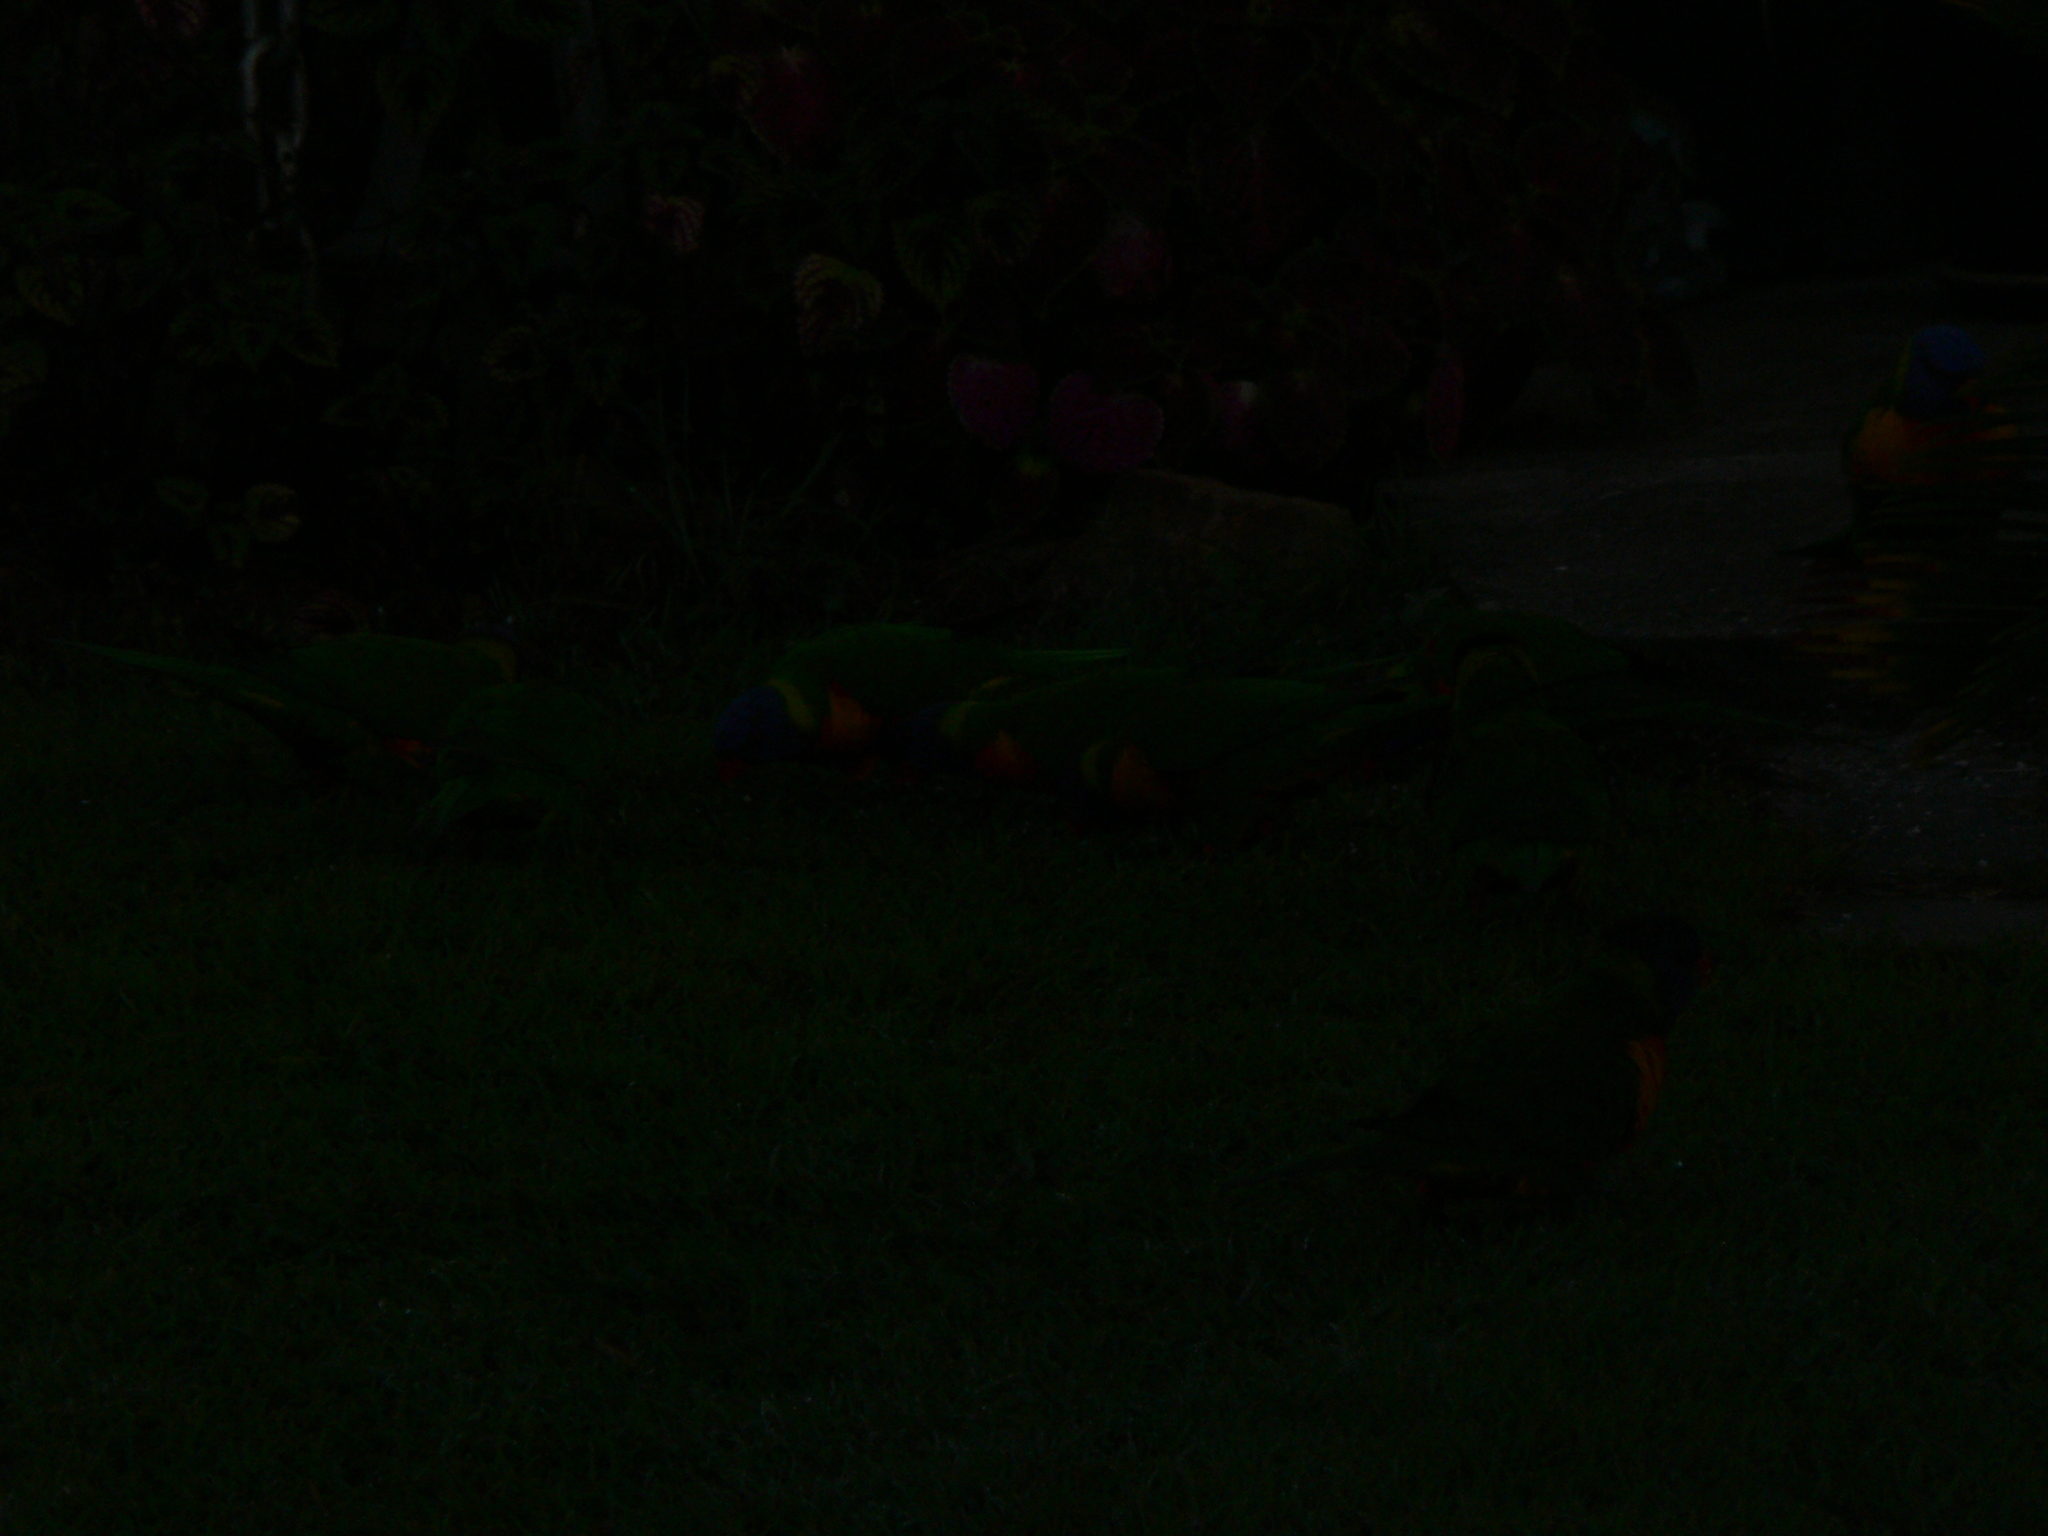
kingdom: Animalia
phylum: Chordata
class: Aves
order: Psittaciformes
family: Psittacidae
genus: Trichoglossus
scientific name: Trichoglossus haematodus
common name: Coconut lorikeet
